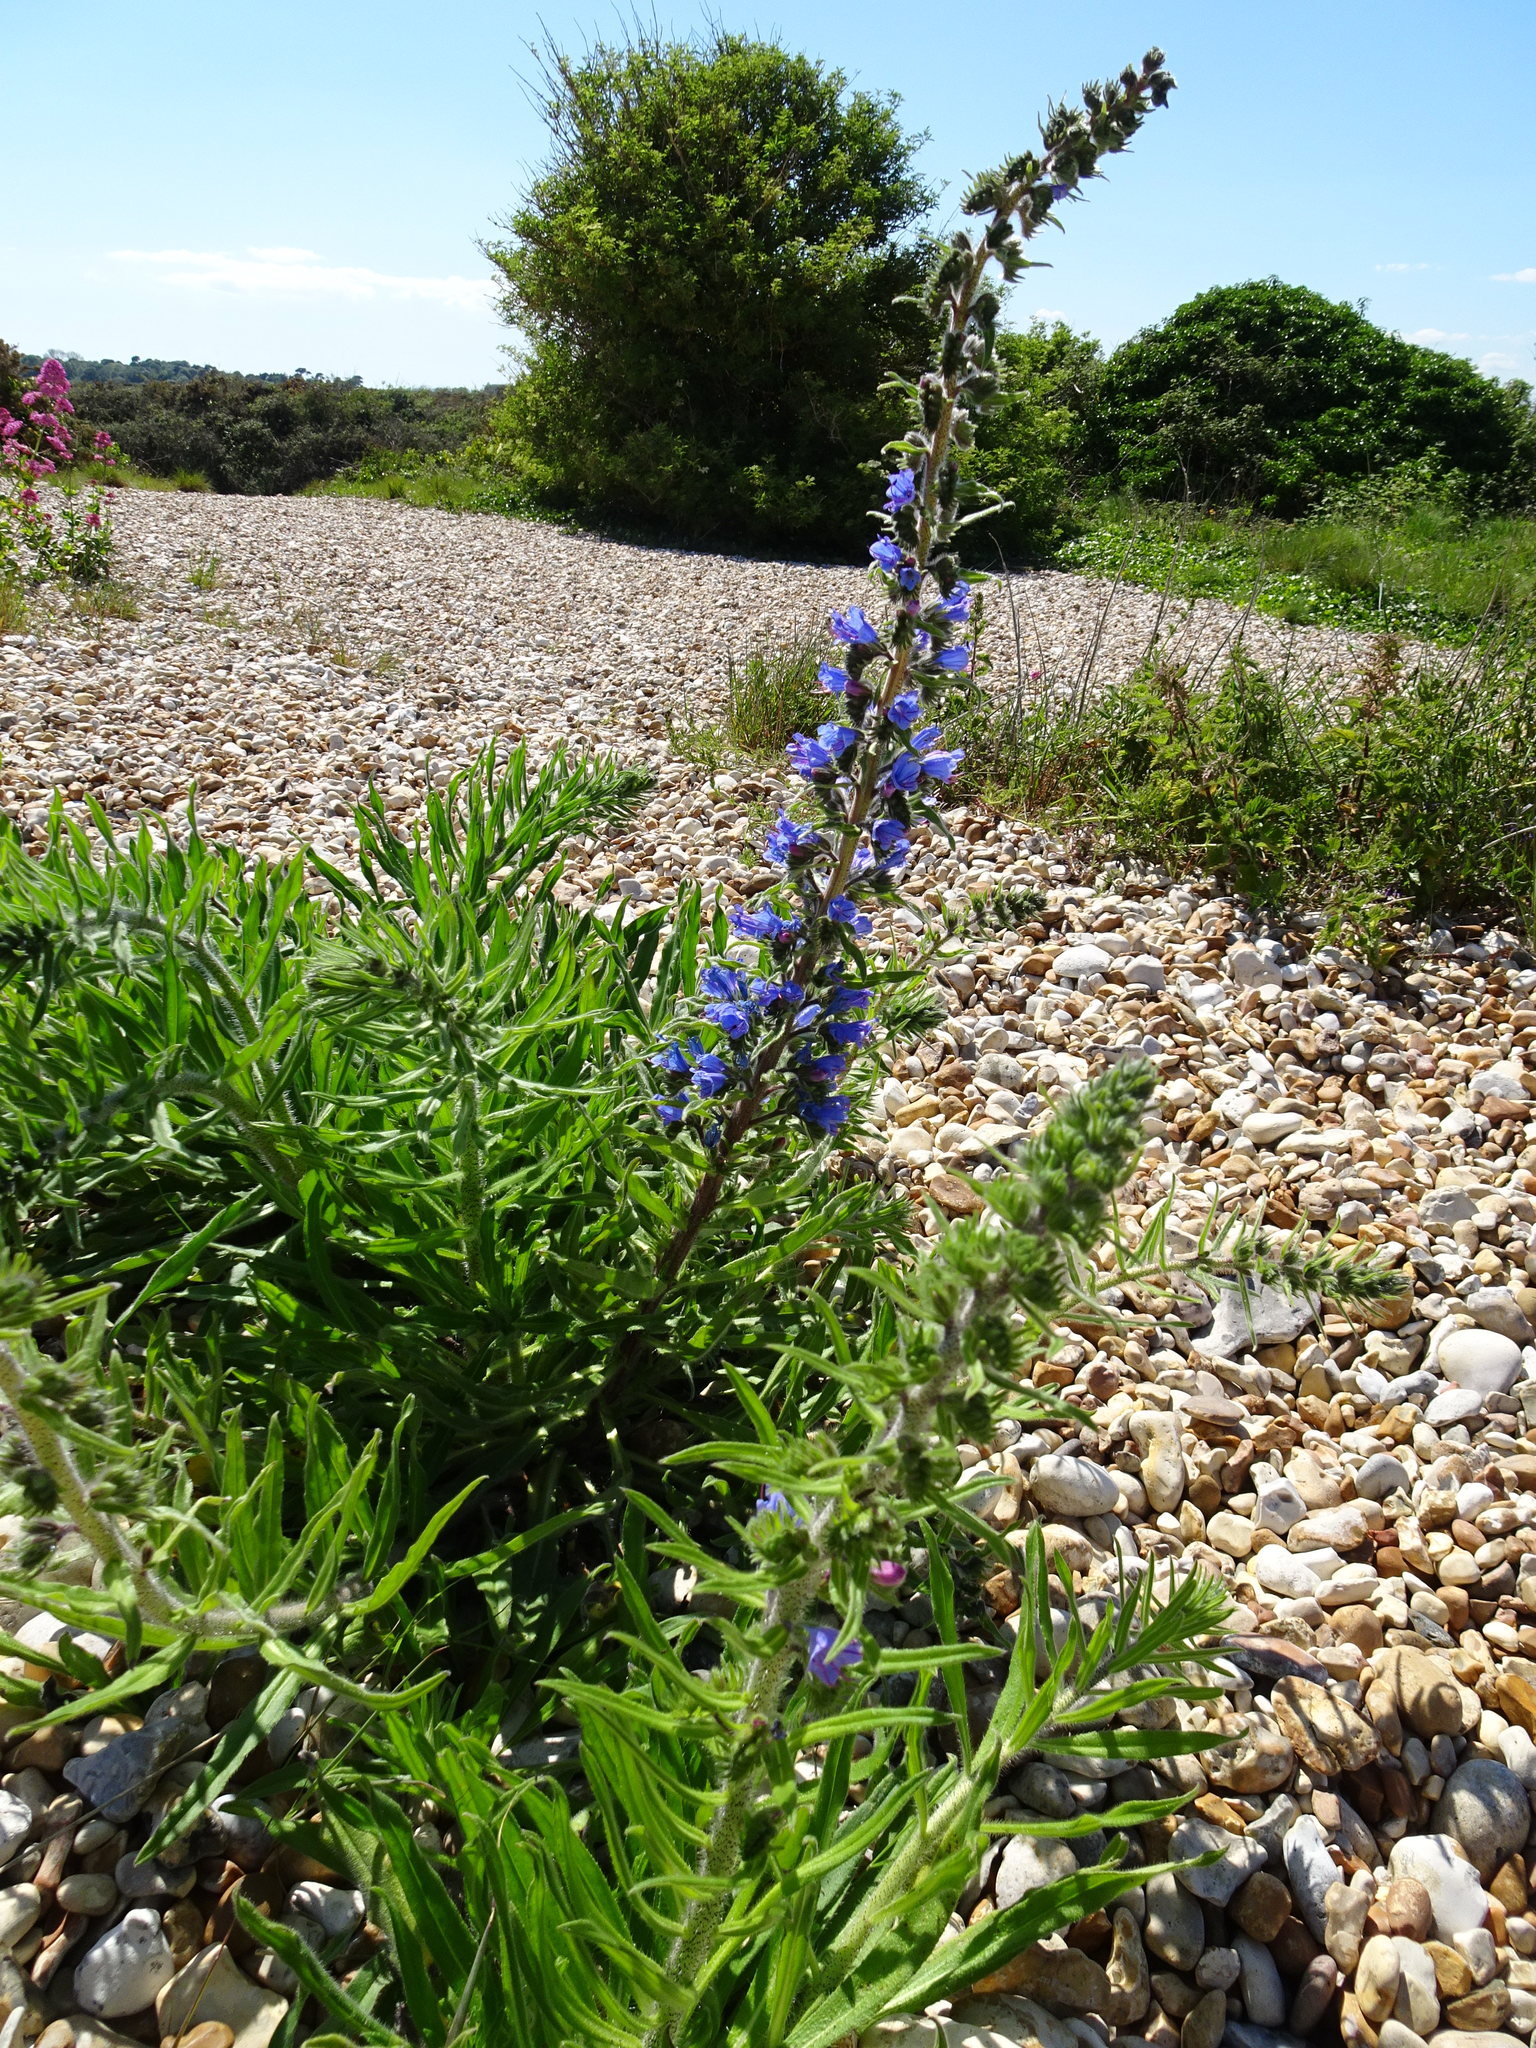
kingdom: Plantae
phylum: Tracheophyta
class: Magnoliopsida
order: Boraginales
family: Boraginaceae
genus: Echium
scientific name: Echium vulgare
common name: Common viper's bugloss
